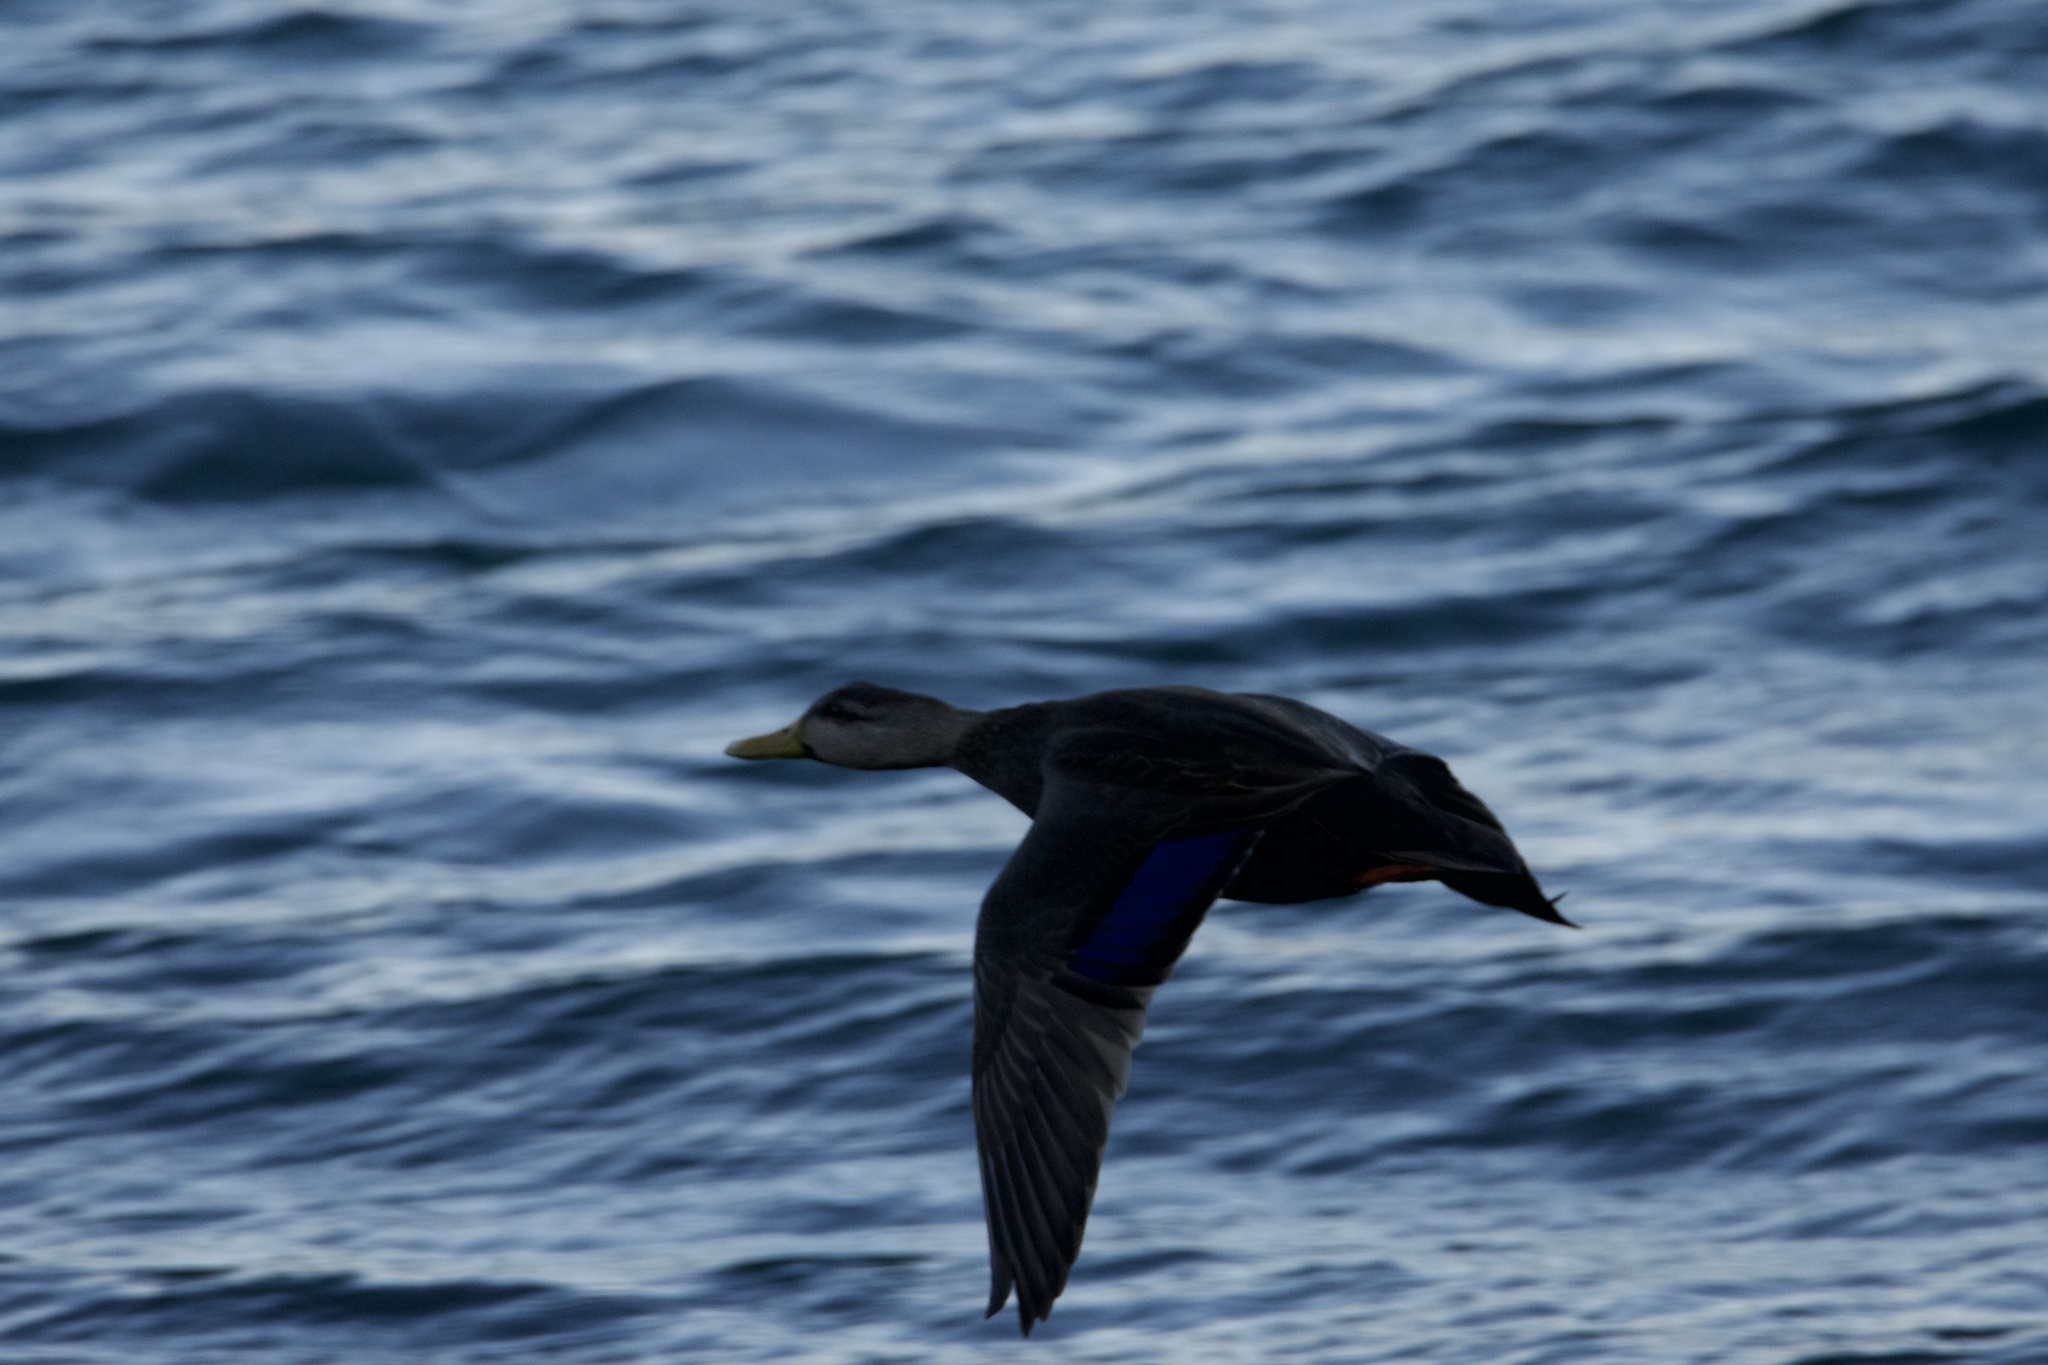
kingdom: Animalia
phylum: Chordata
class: Aves
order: Anseriformes
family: Anatidae
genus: Anas
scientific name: Anas rubripes
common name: American black duck
